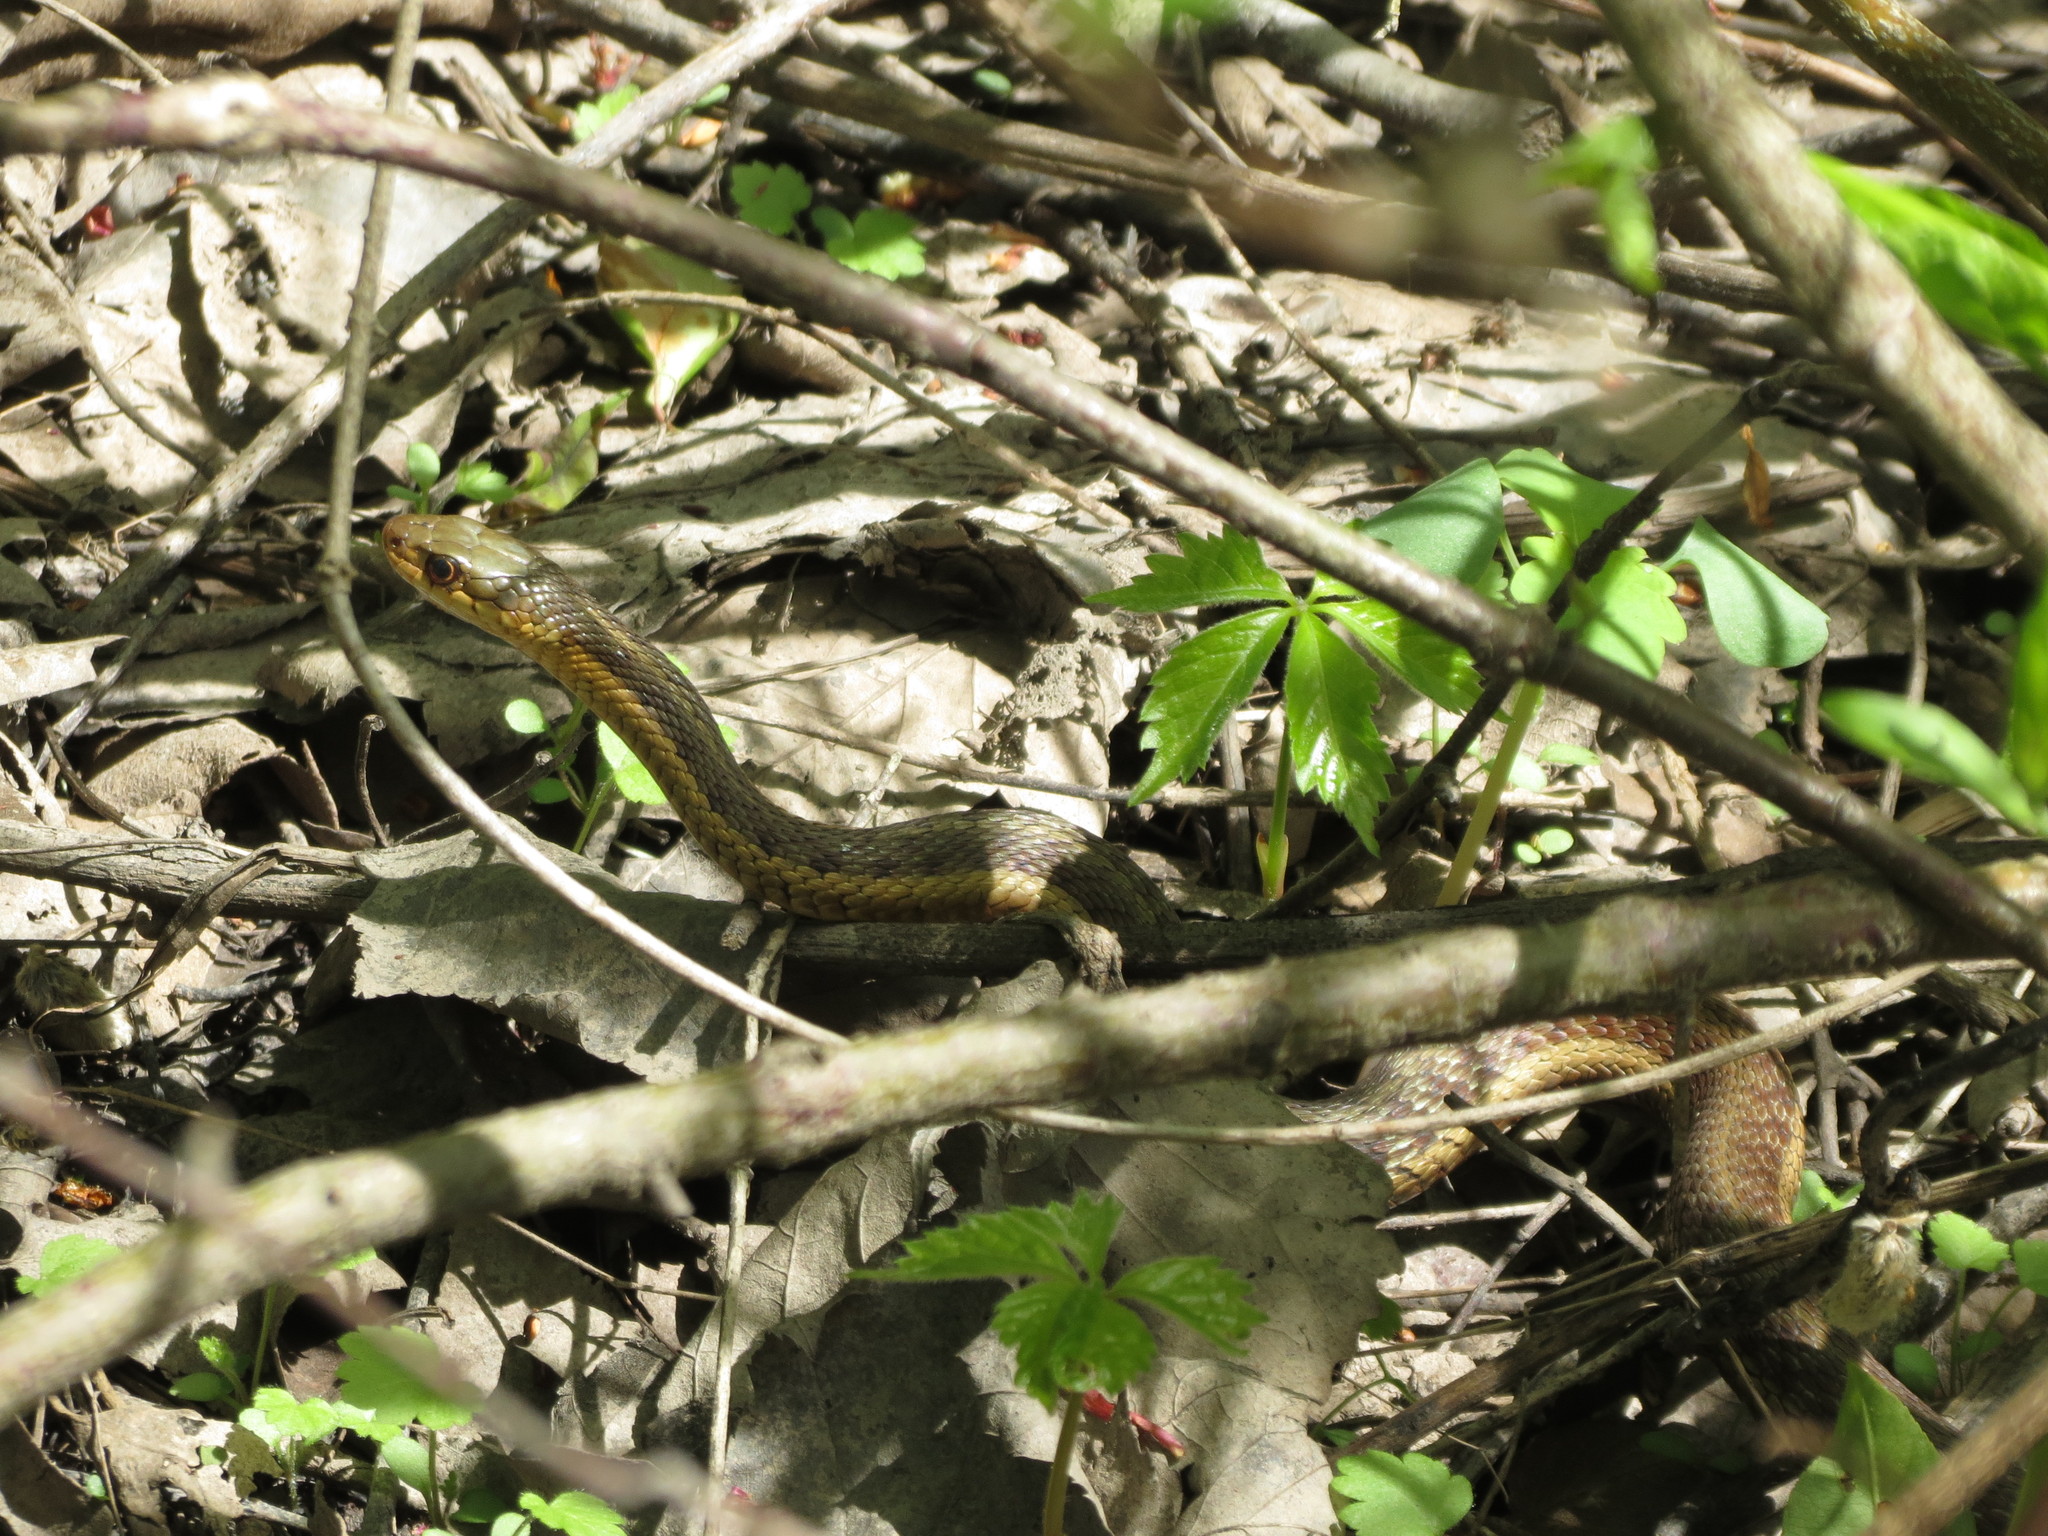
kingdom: Animalia
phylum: Chordata
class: Squamata
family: Colubridae
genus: Thamnophis
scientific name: Thamnophis sirtalis
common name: Common garter snake
